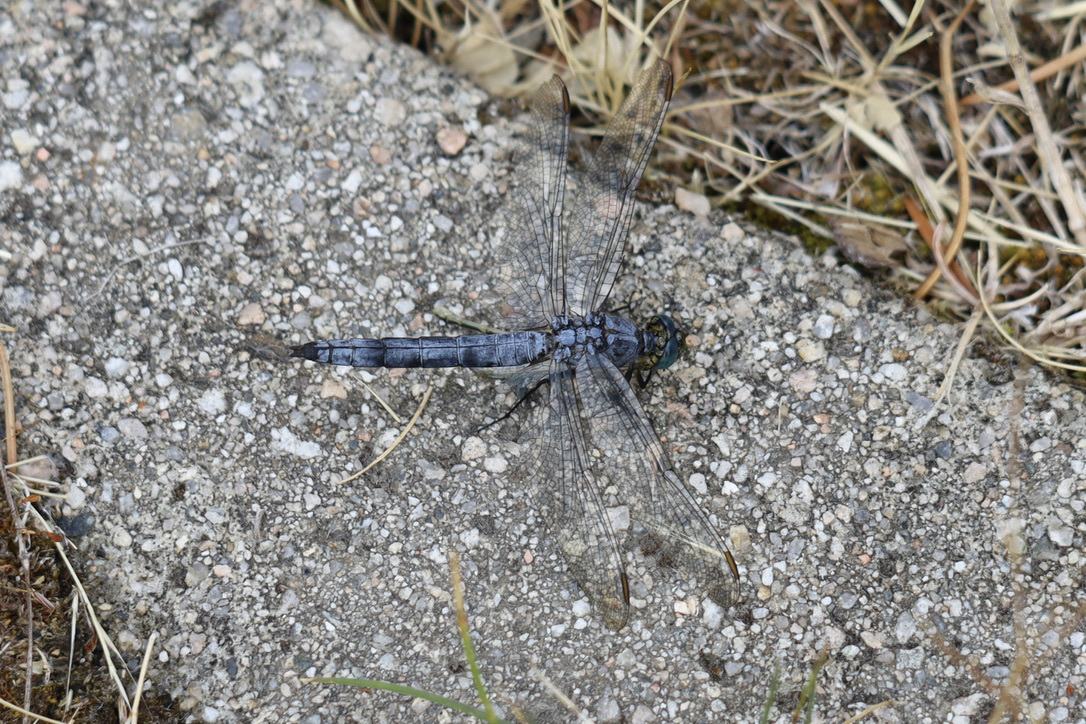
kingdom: Animalia
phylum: Arthropoda
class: Insecta
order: Odonata
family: Libellulidae
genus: Erythemis
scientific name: Erythemis collocata
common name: Western pondhawk
